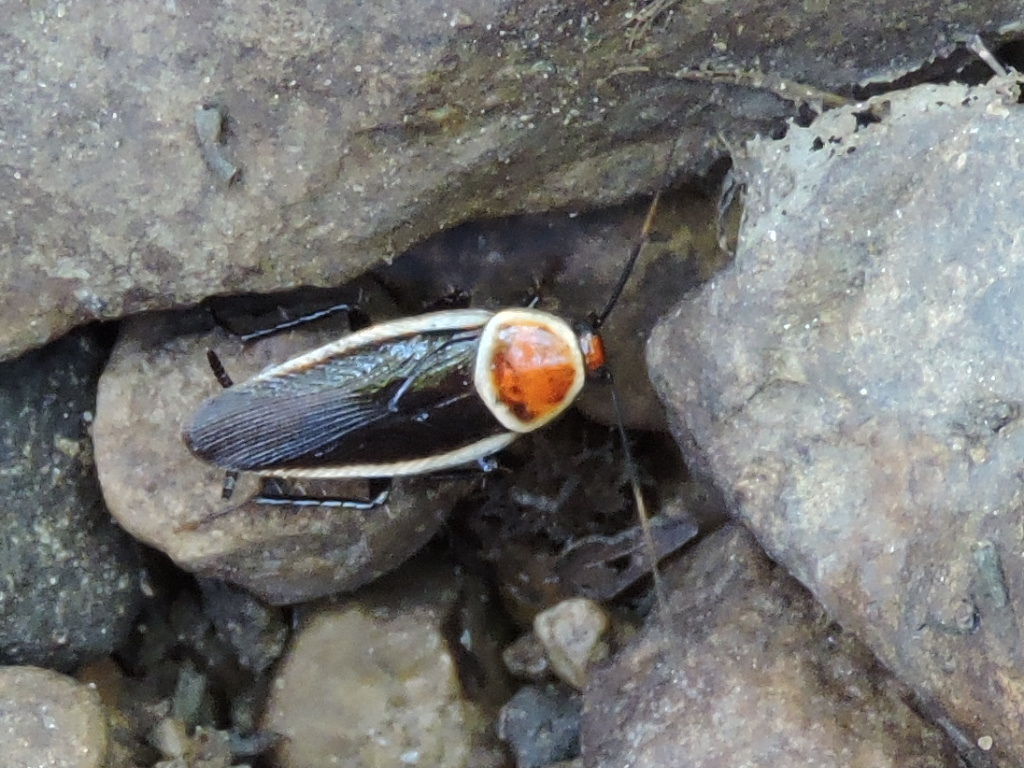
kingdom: Animalia
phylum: Arthropoda
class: Insecta
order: Blattodea
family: Ectobiidae
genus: Pseudomops
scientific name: Pseudomops septentrionalis
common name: Pale-bordered field cockroach
